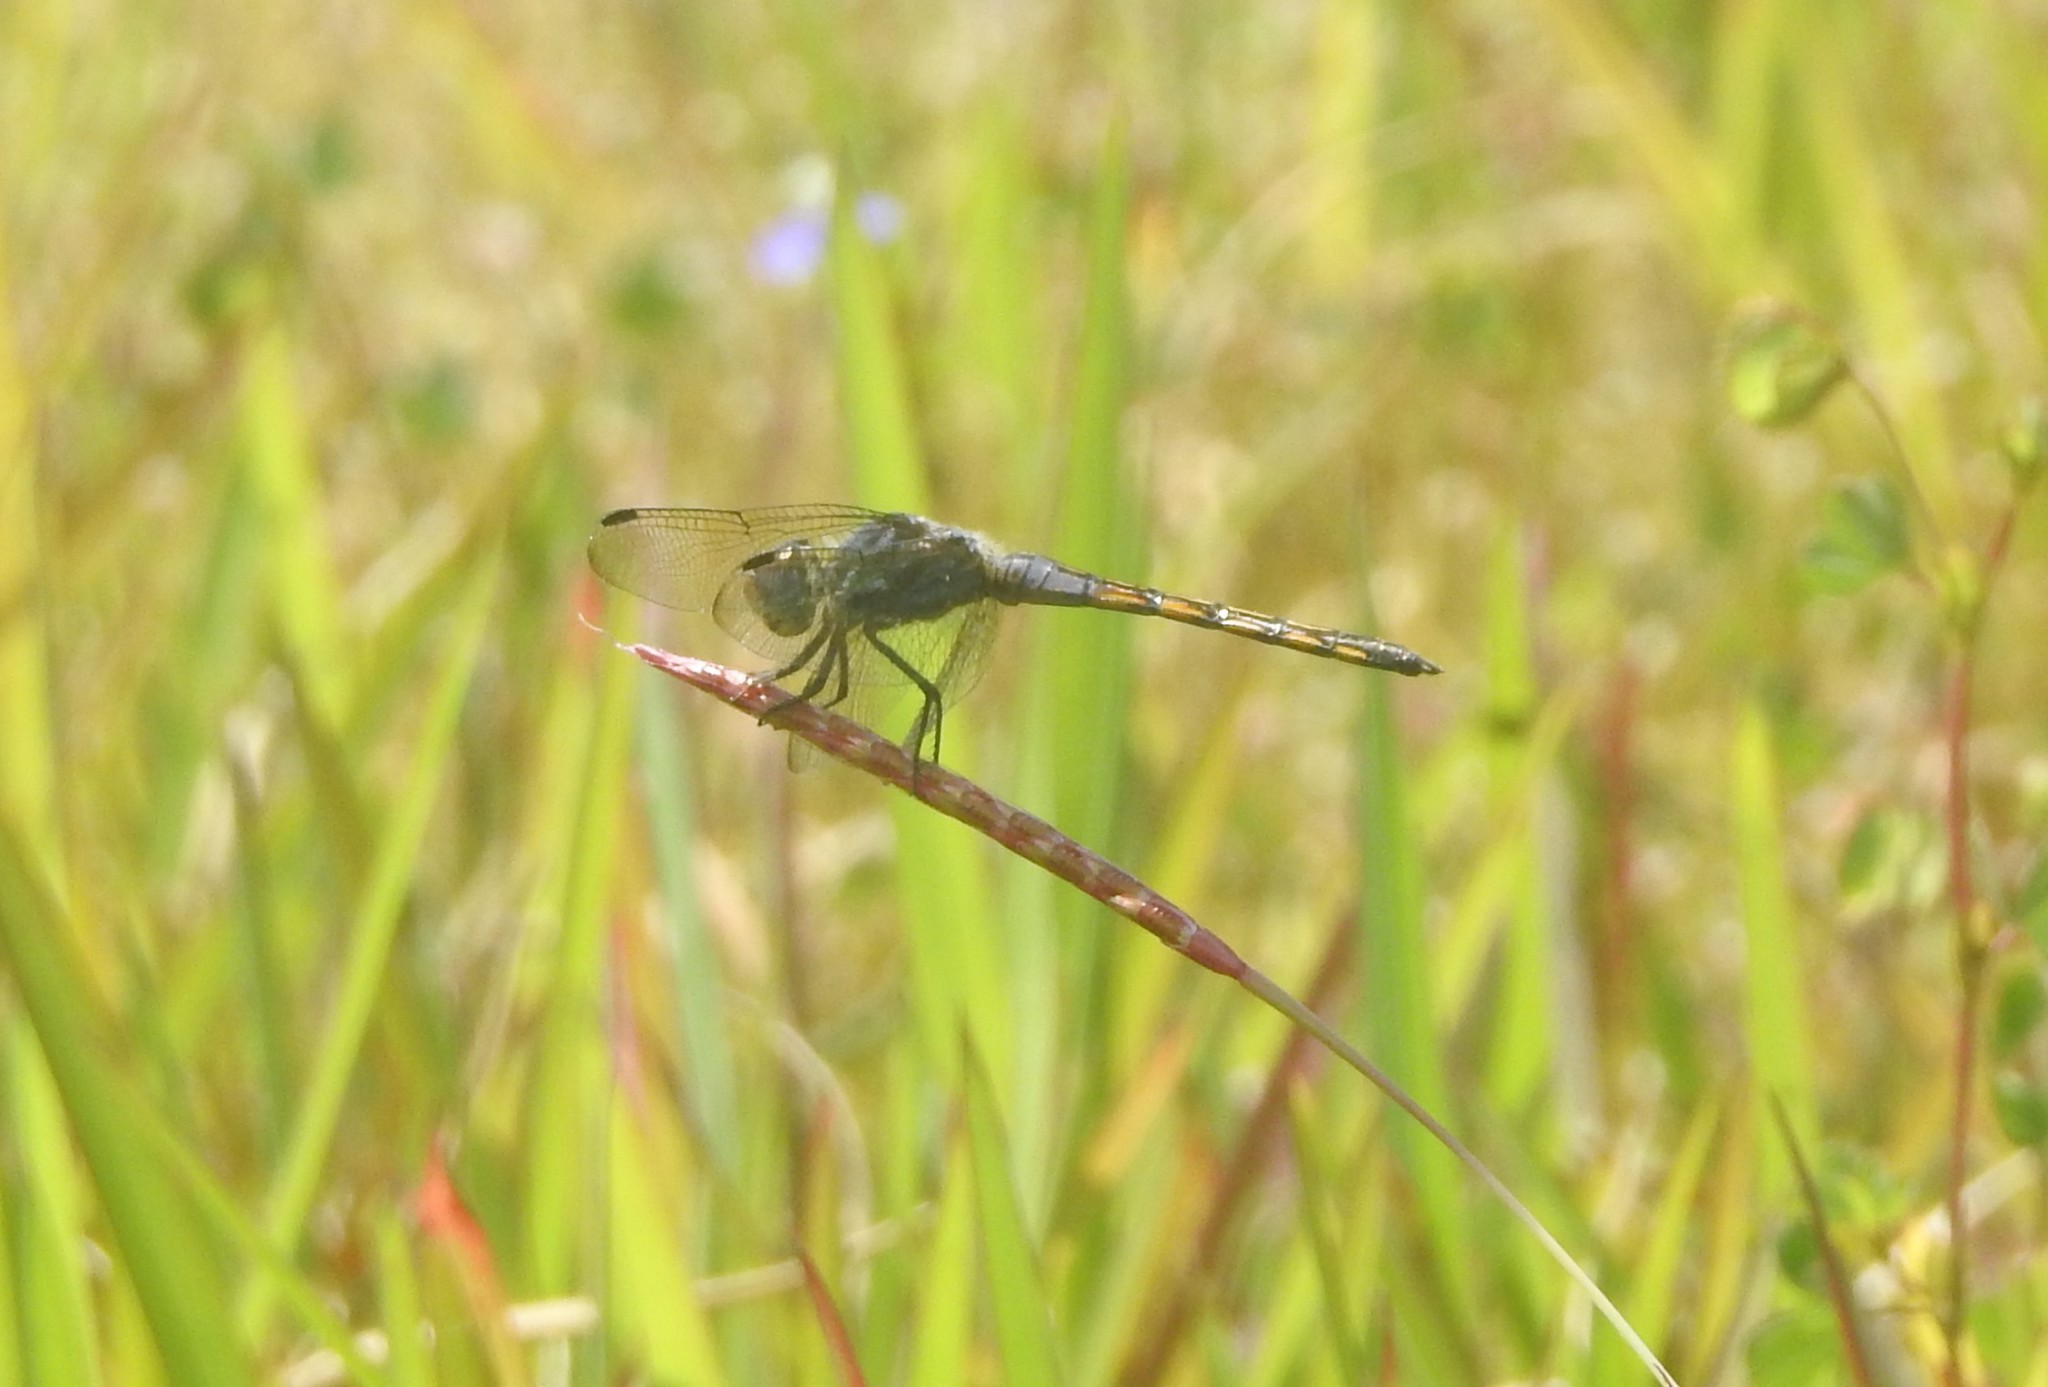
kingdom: Animalia
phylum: Arthropoda
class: Insecta
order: Odonata
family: Libellulidae
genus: Potamarcha
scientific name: Potamarcha congener
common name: Blue chaser
